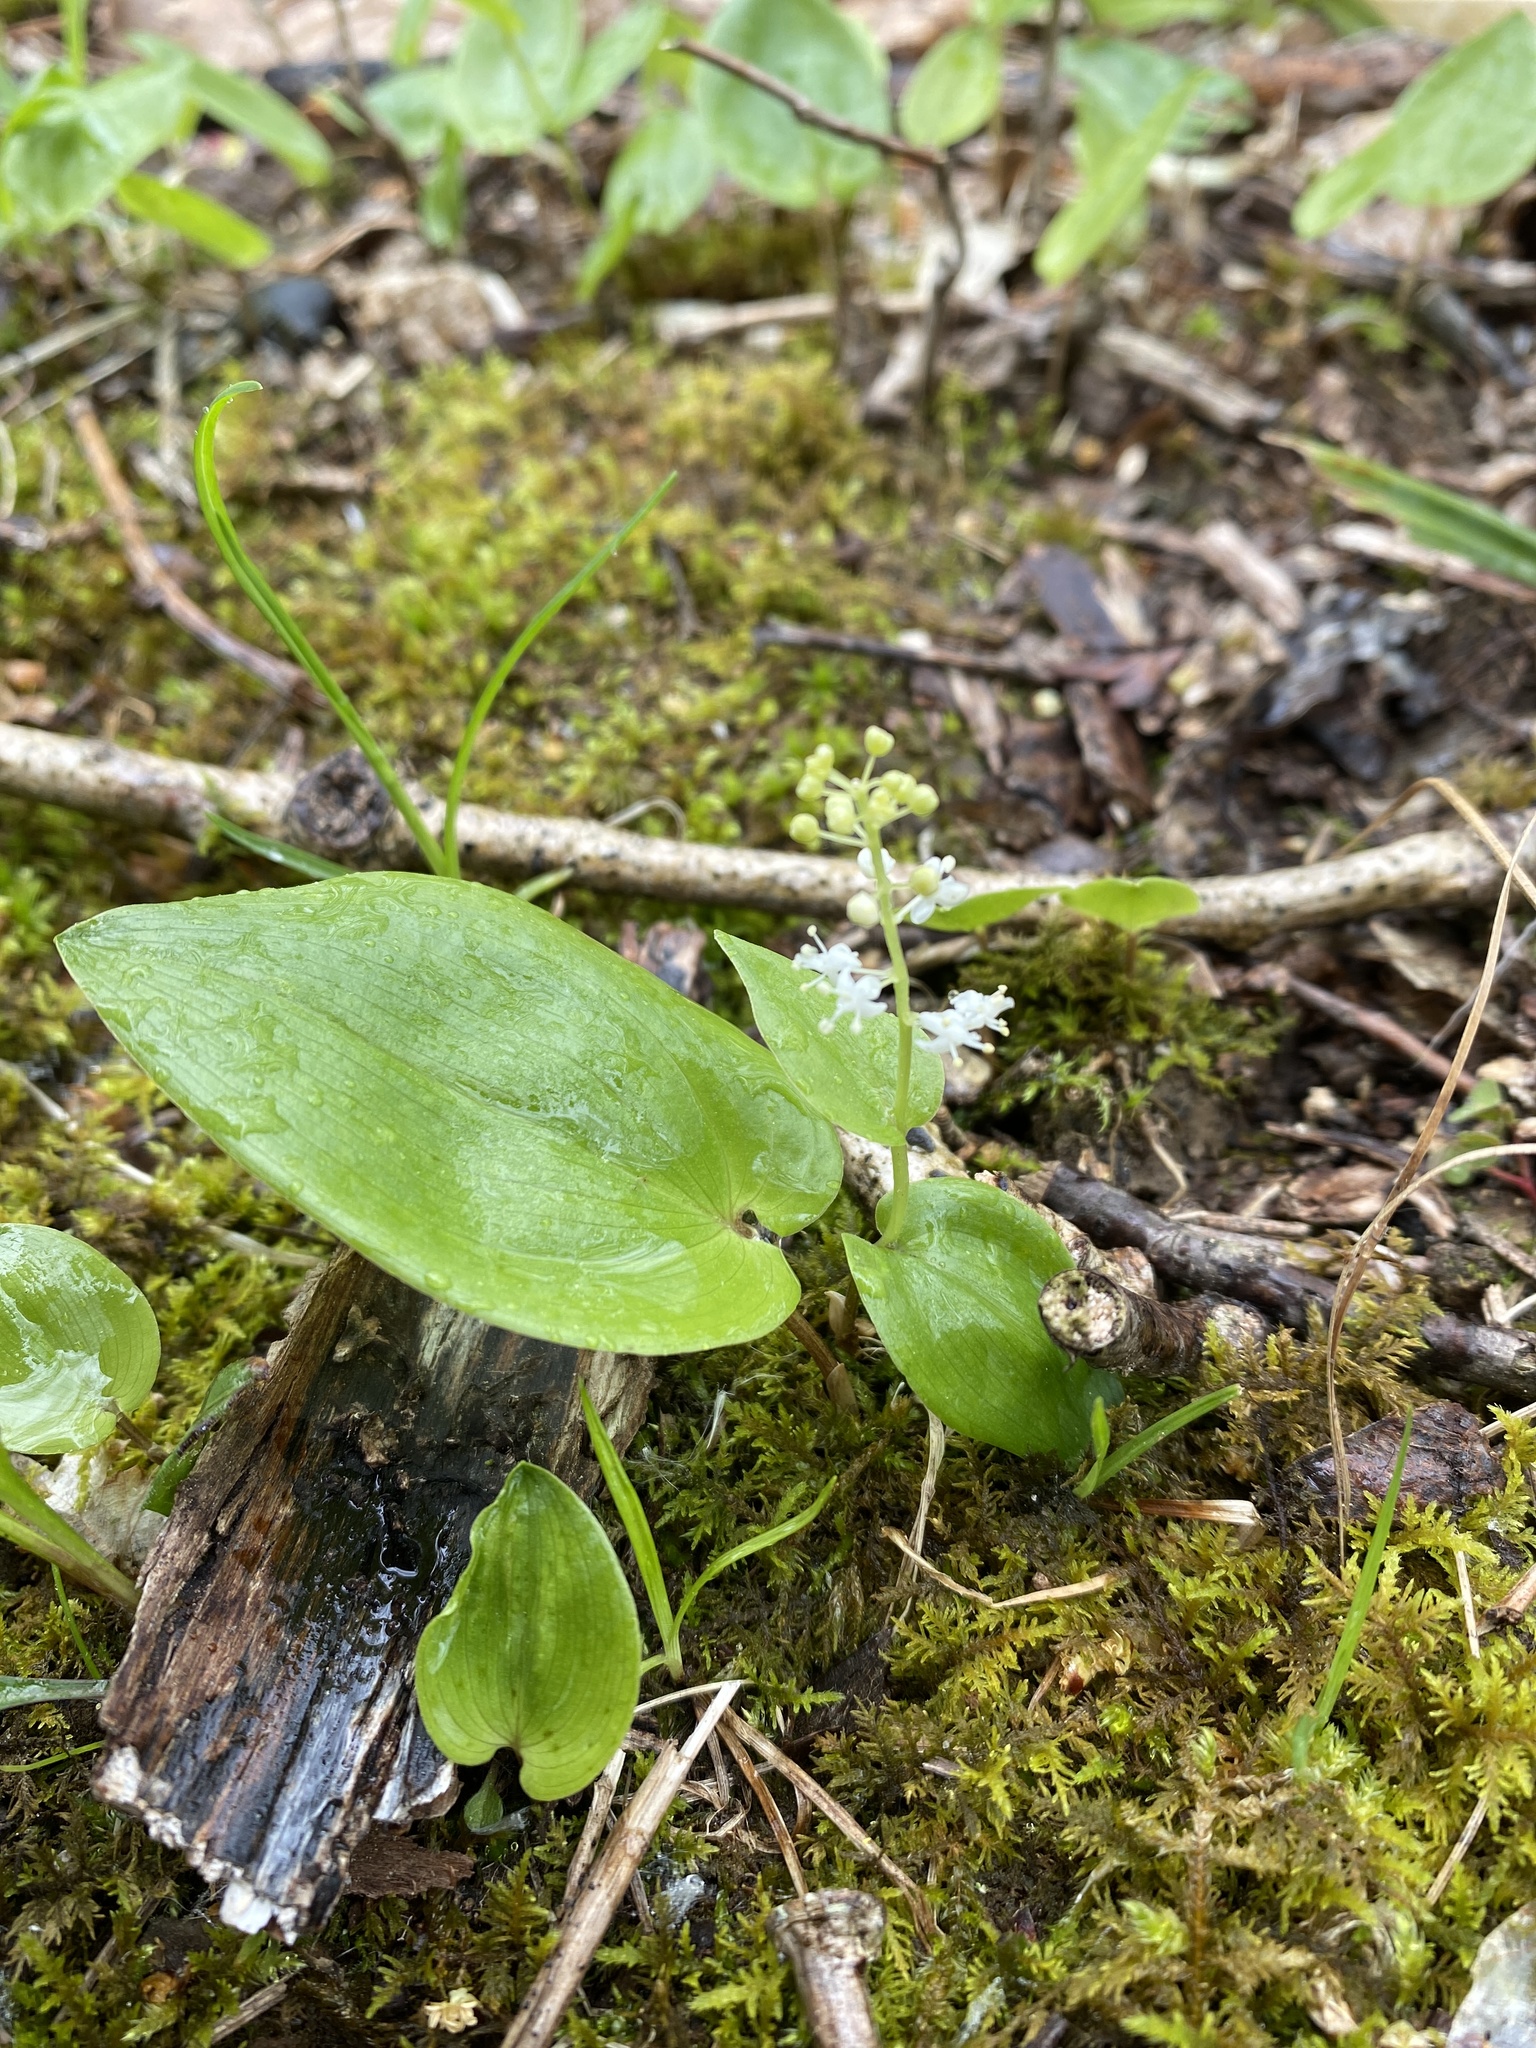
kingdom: Plantae
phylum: Tracheophyta
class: Liliopsida
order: Asparagales
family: Asparagaceae
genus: Maianthemum
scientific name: Maianthemum canadense
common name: False lily-of-the-valley
